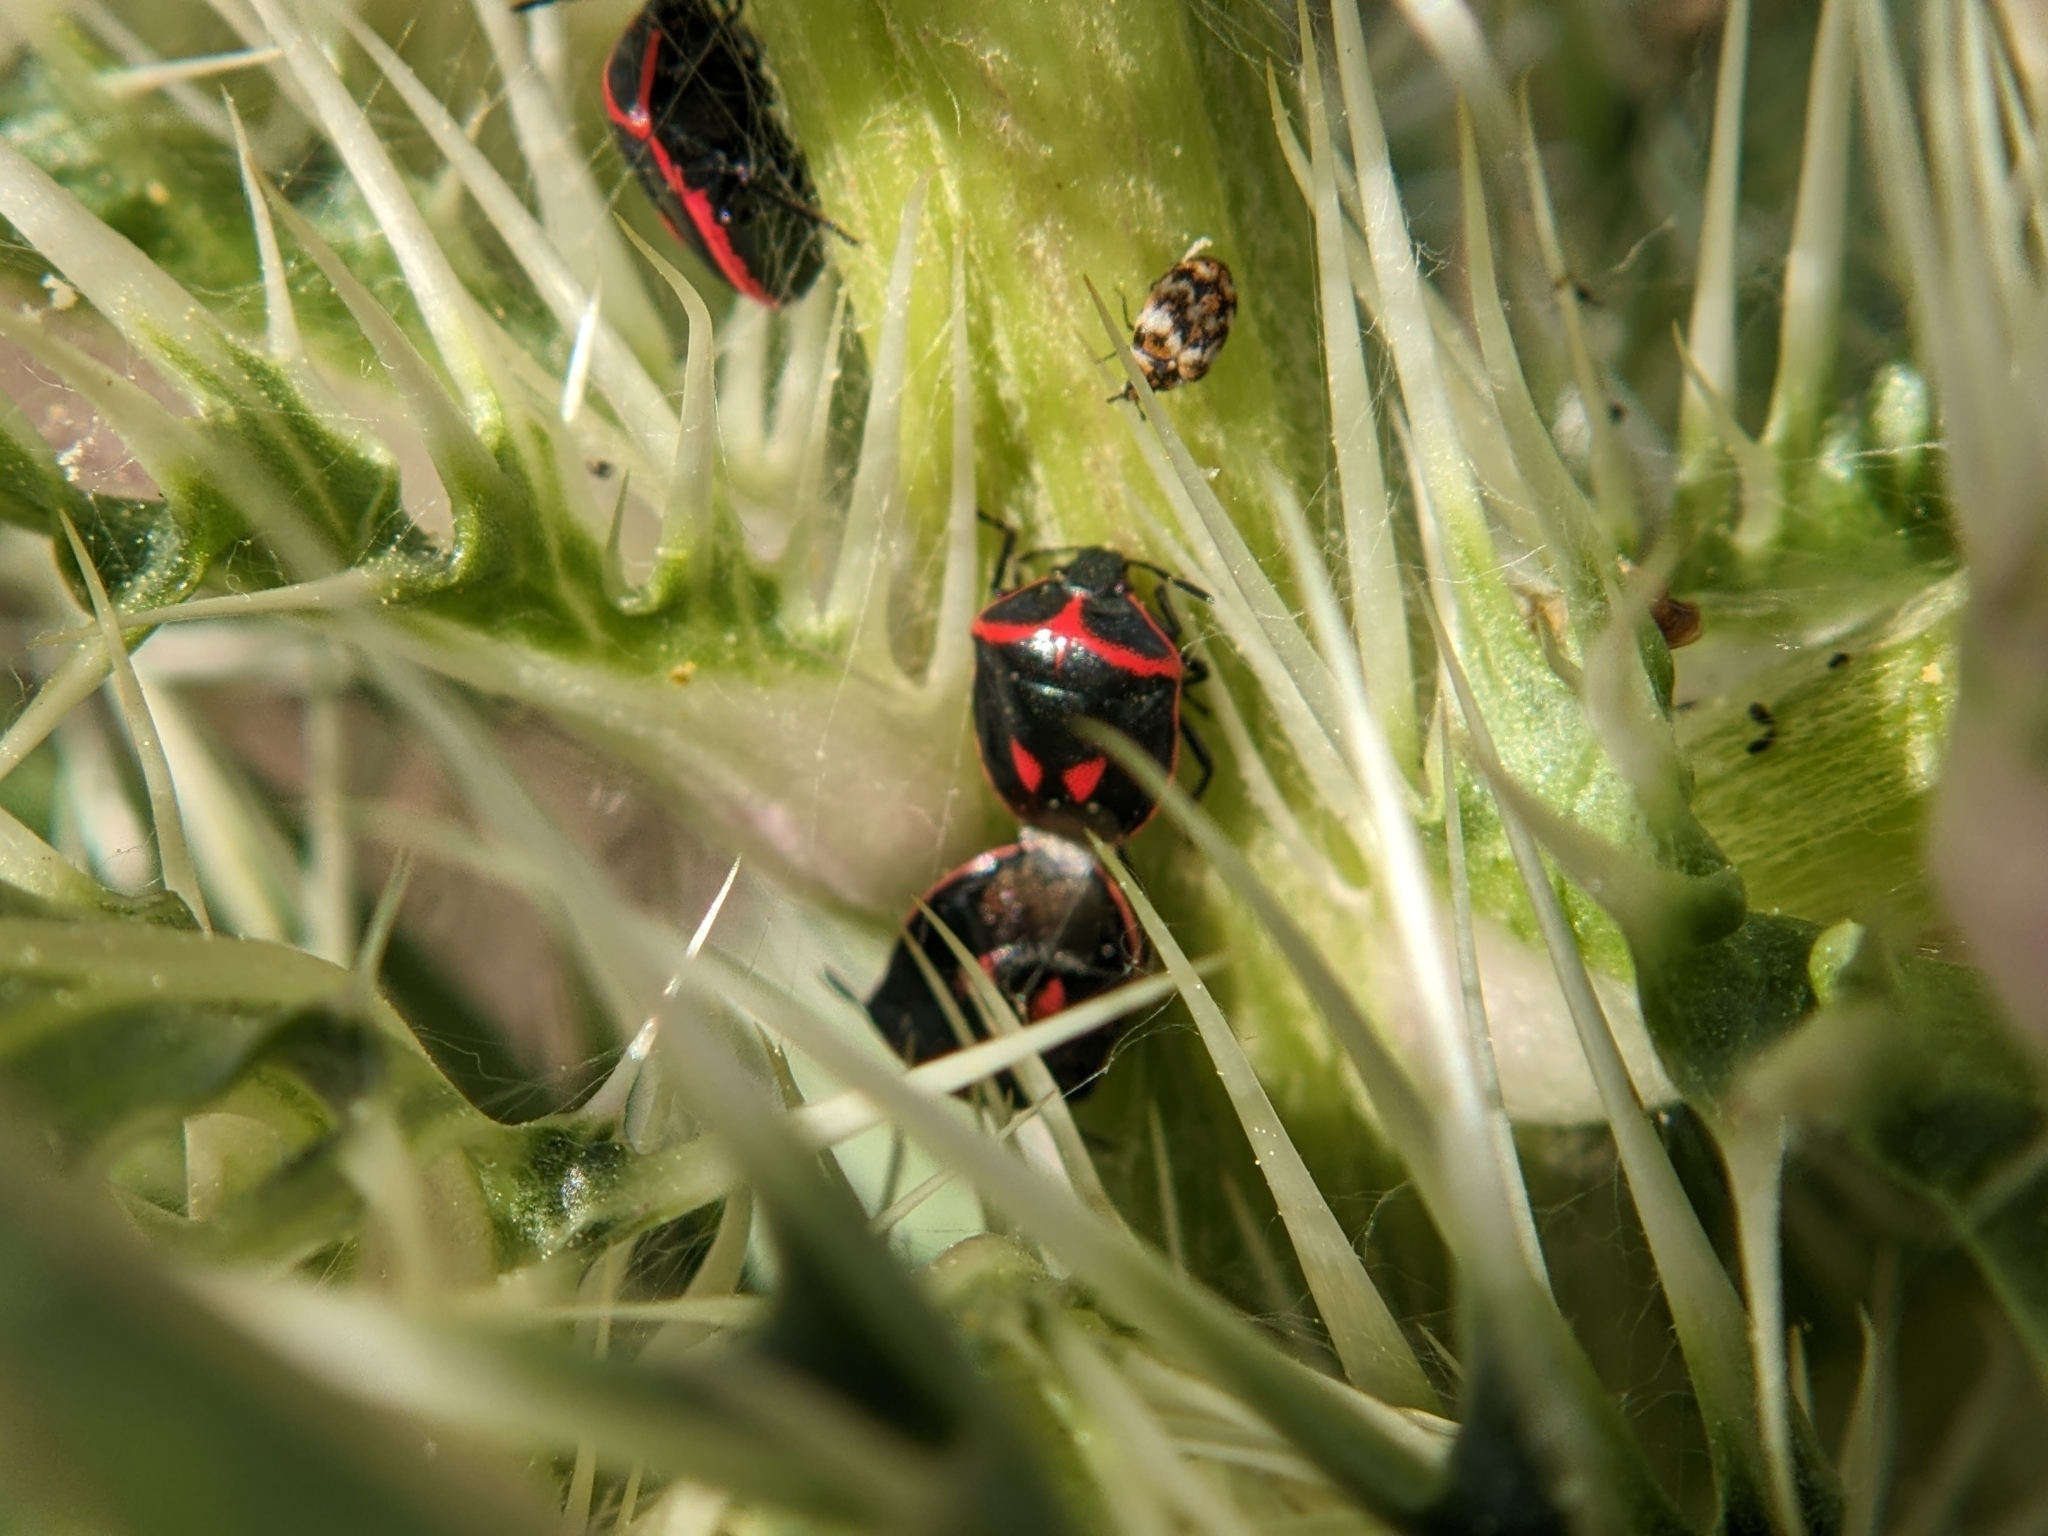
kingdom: Animalia
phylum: Arthropoda
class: Insecta
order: Hemiptera
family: Pentatomidae
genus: Cosmopepla
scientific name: Cosmopepla lintneriana
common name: Twice-stabbed stink bug
